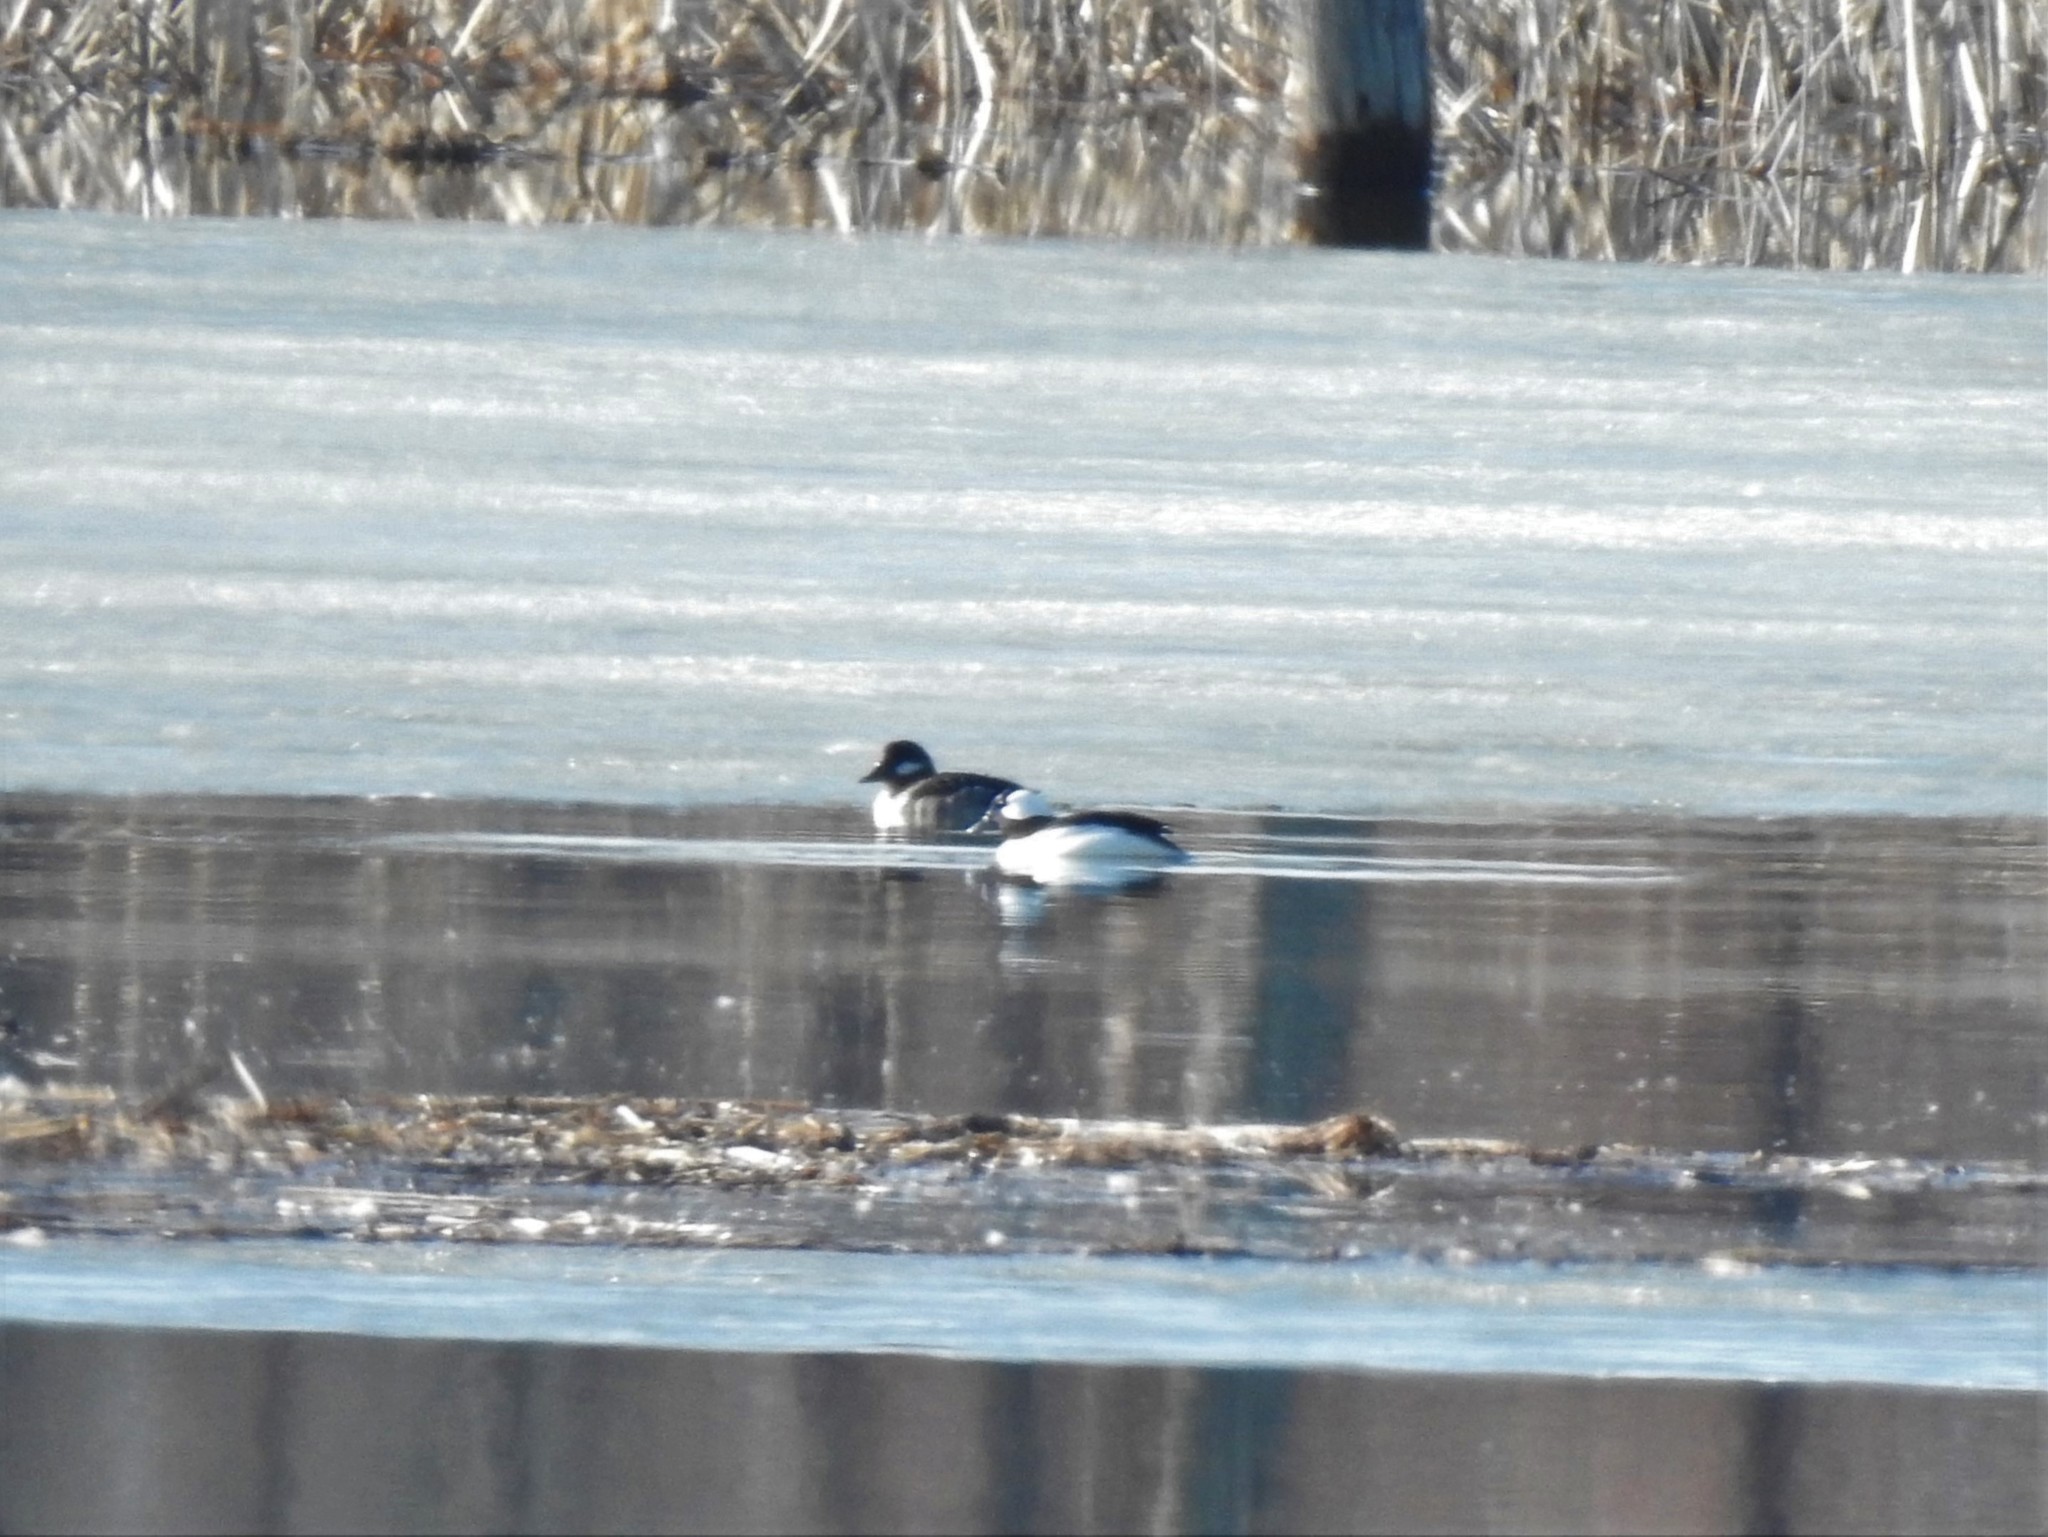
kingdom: Animalia
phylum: Chordata
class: Aves
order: Anseriformes
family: Anatidae
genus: Bucephala
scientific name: Bucephala albeola
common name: Bufflehead
